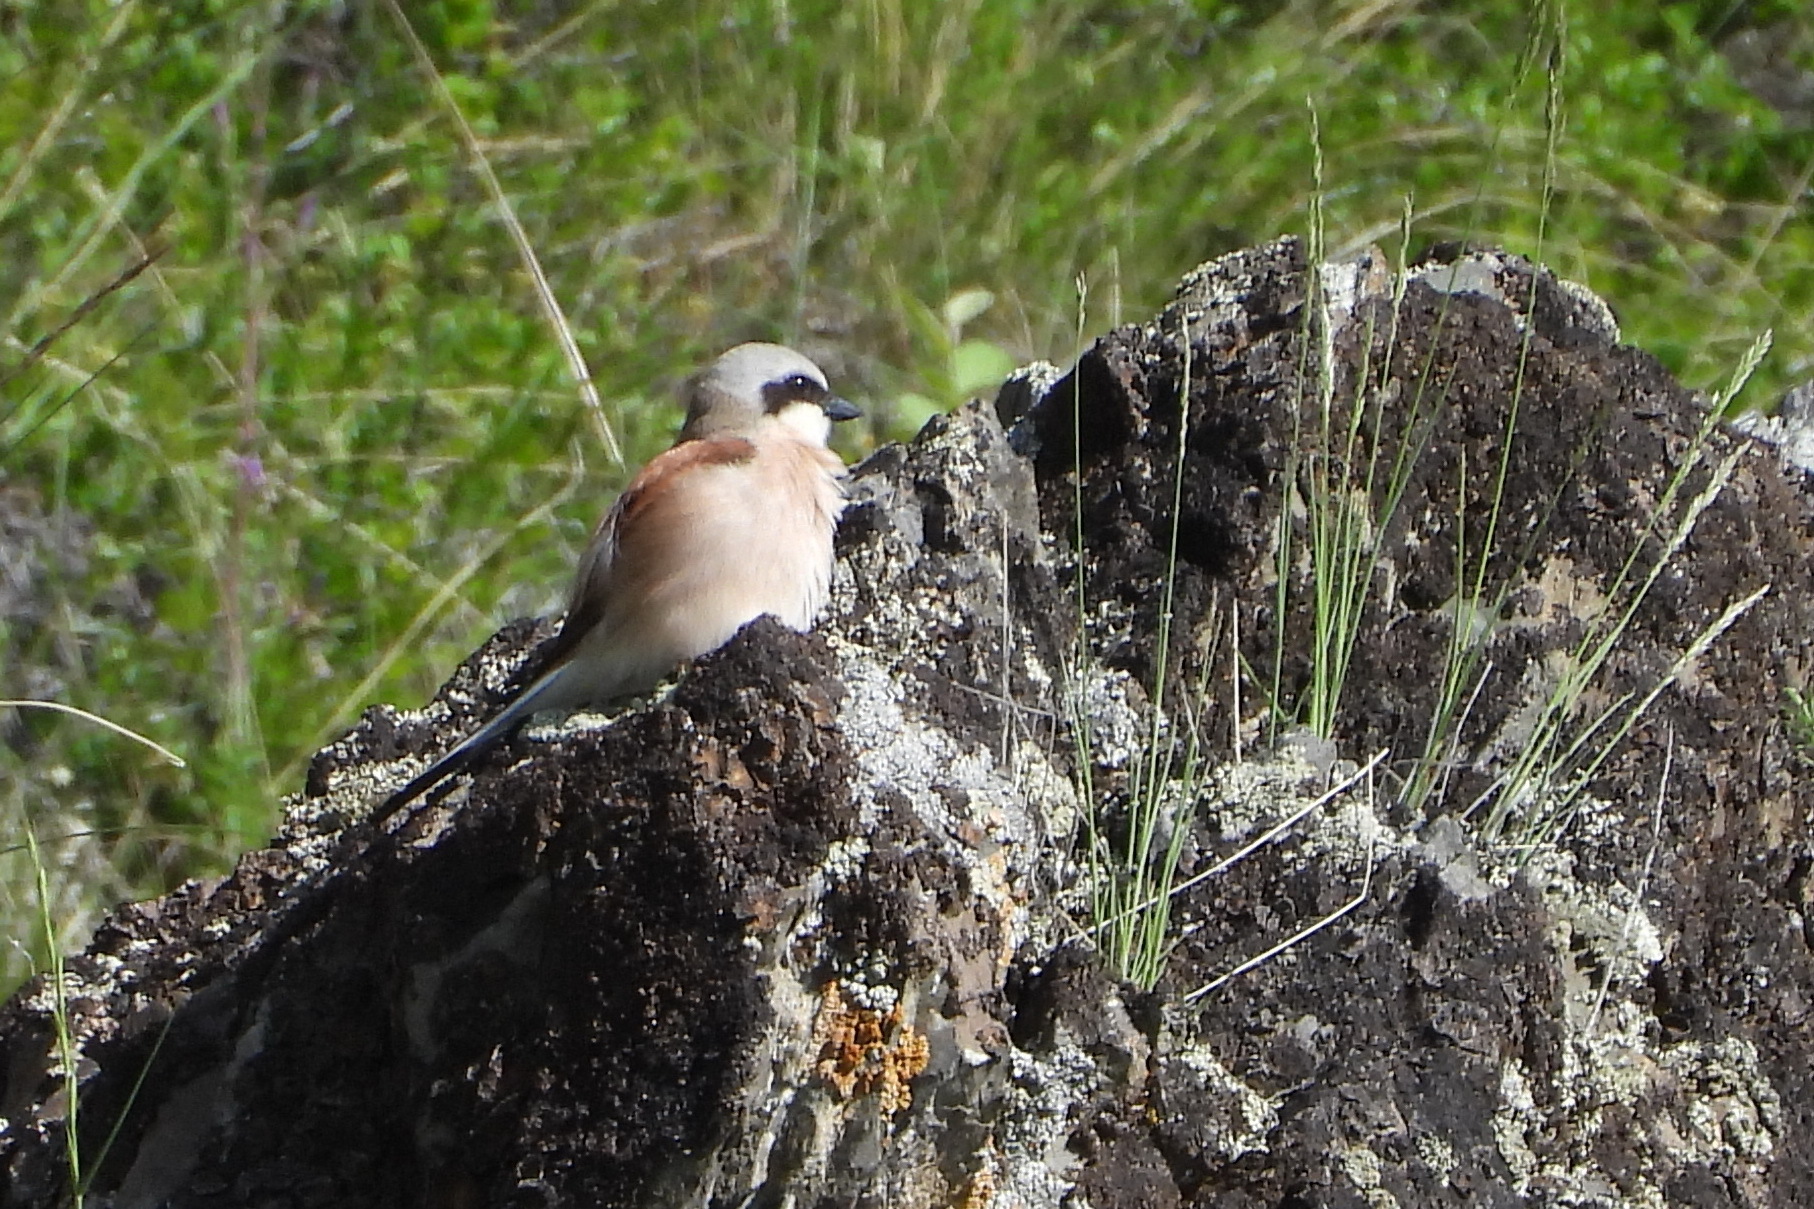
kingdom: Animalia
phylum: Chordata
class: Aves
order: Passeriformes
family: Laniidae
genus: Lanius
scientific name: Lanius collurio
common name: Red-backed shrike
